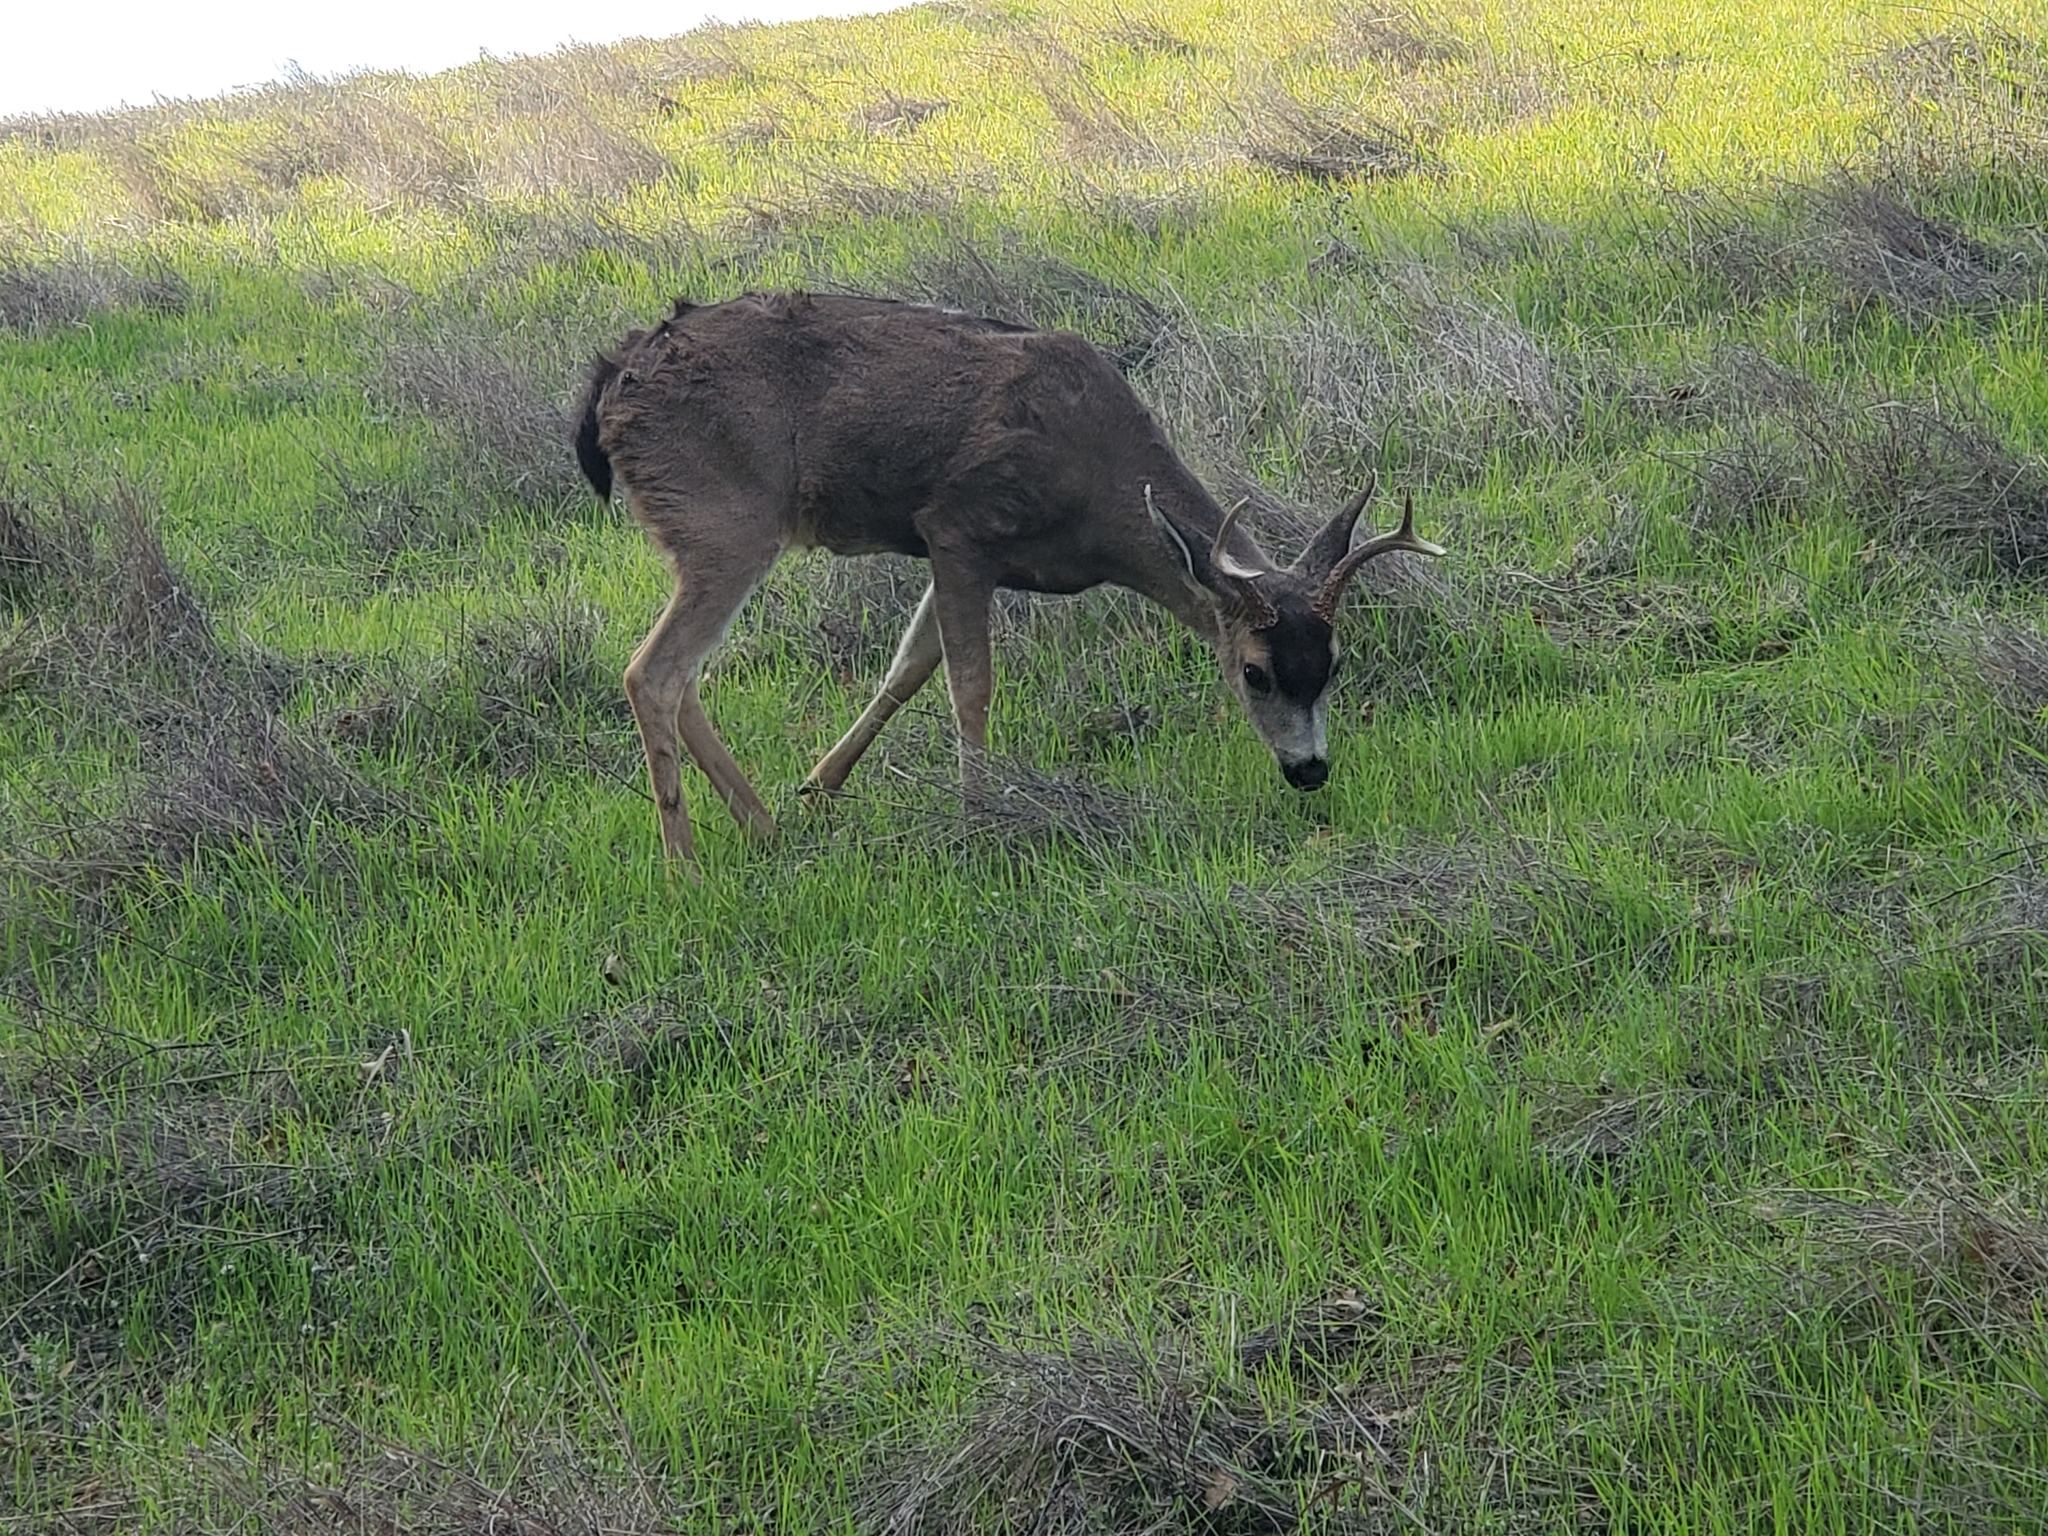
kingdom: Animalia
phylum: Chordata
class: Mammalia
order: Artiodactyla
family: Cervidae
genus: Odocoileus
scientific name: Odocoileus hemionus
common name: Mule deer
